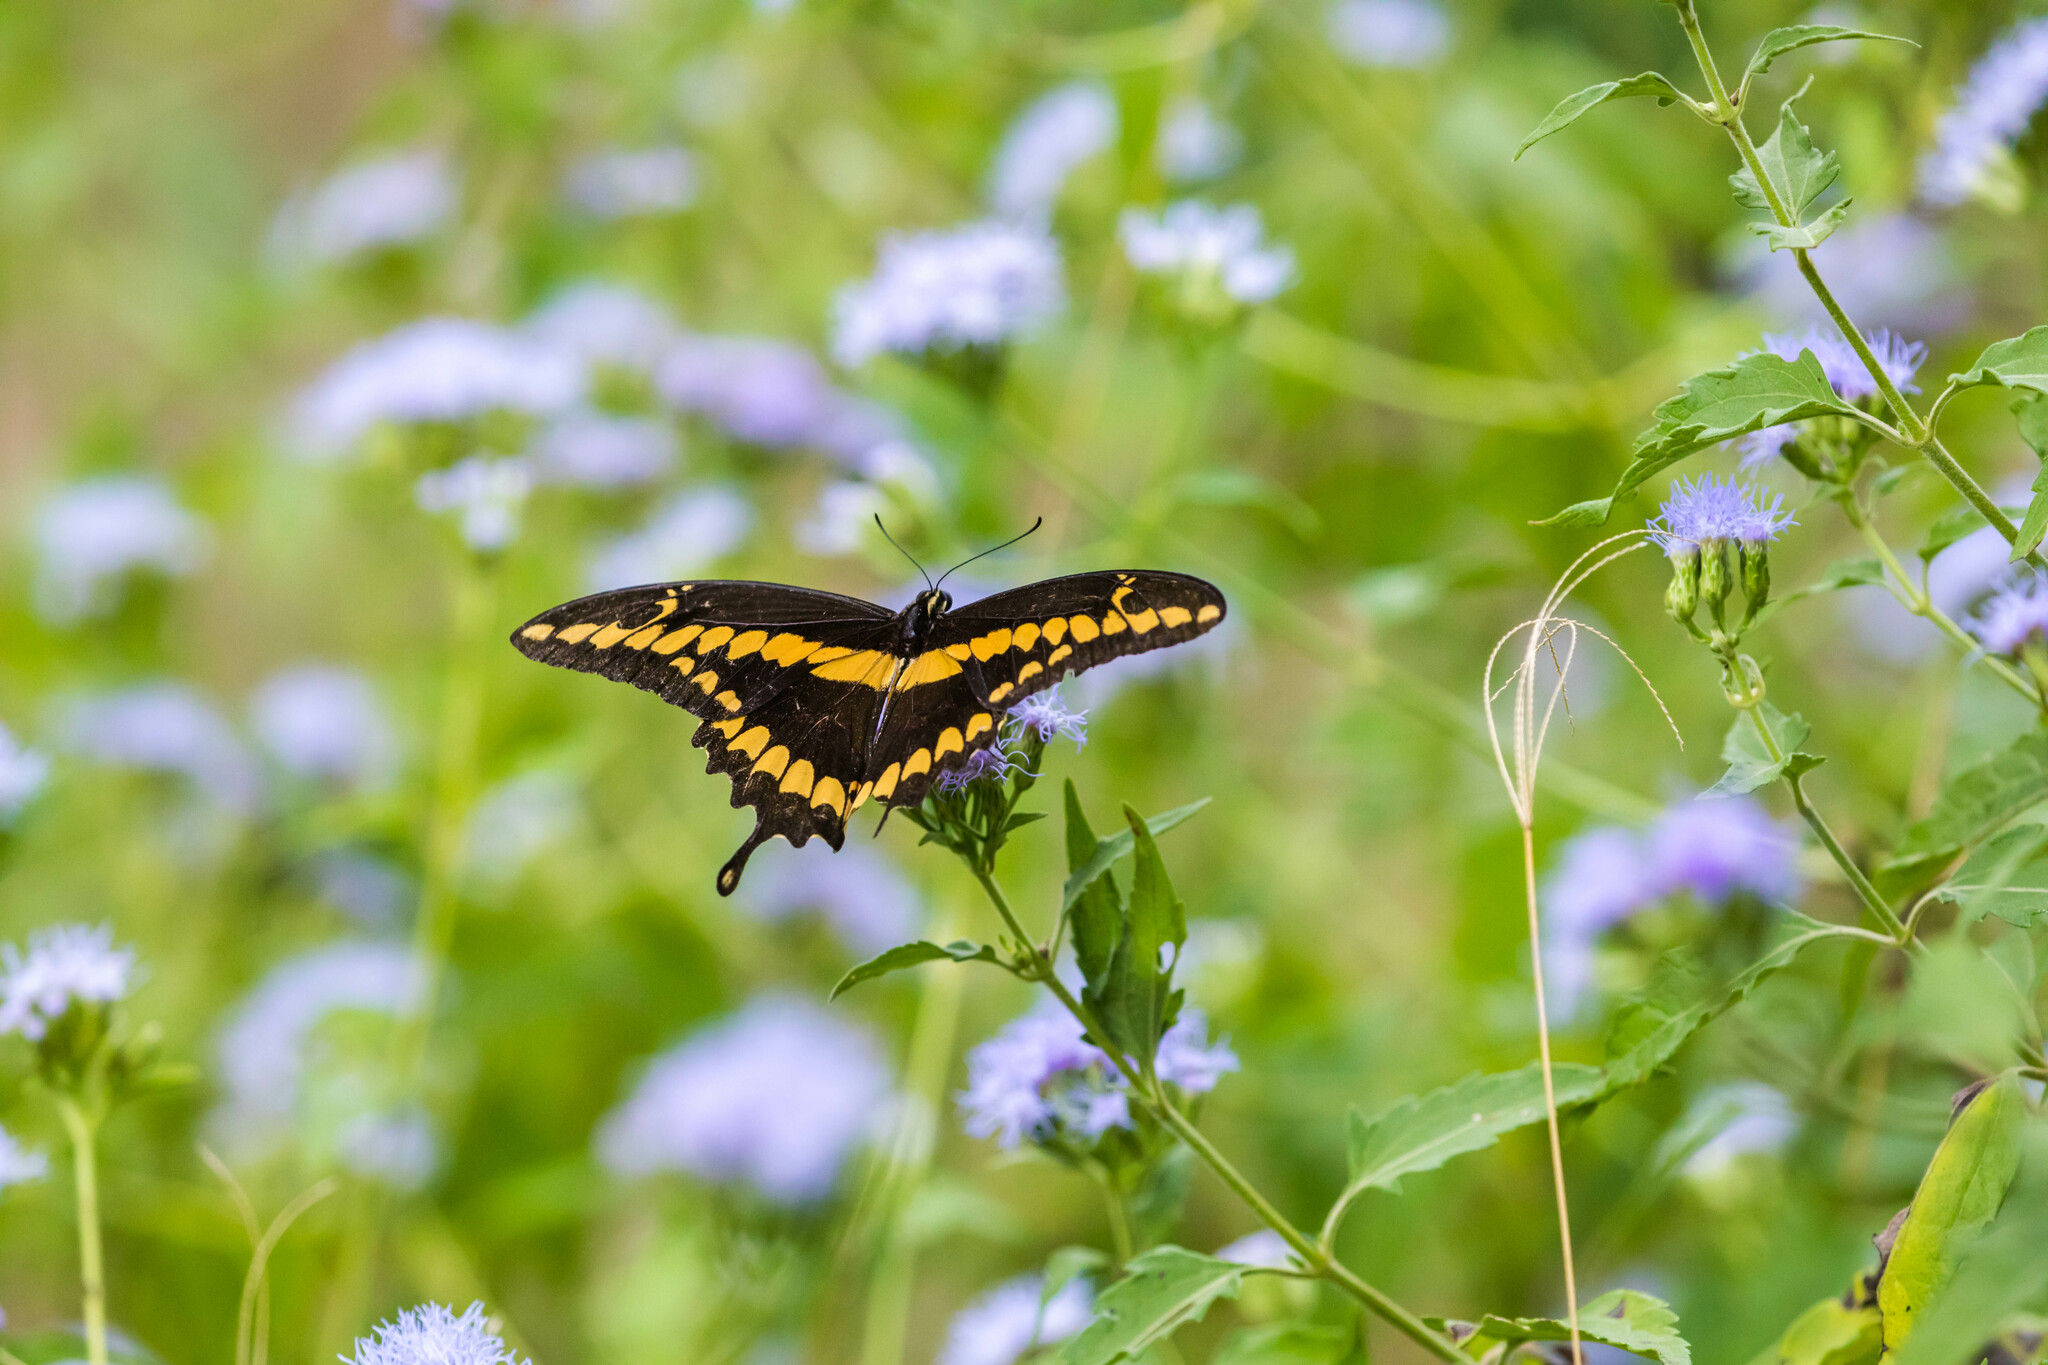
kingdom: Animalia
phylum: Arthropoda
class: Insecta
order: Lepidoptera
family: Papilionidae
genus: Papilio
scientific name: Papilio rumiko
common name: Western giant swallowtail
